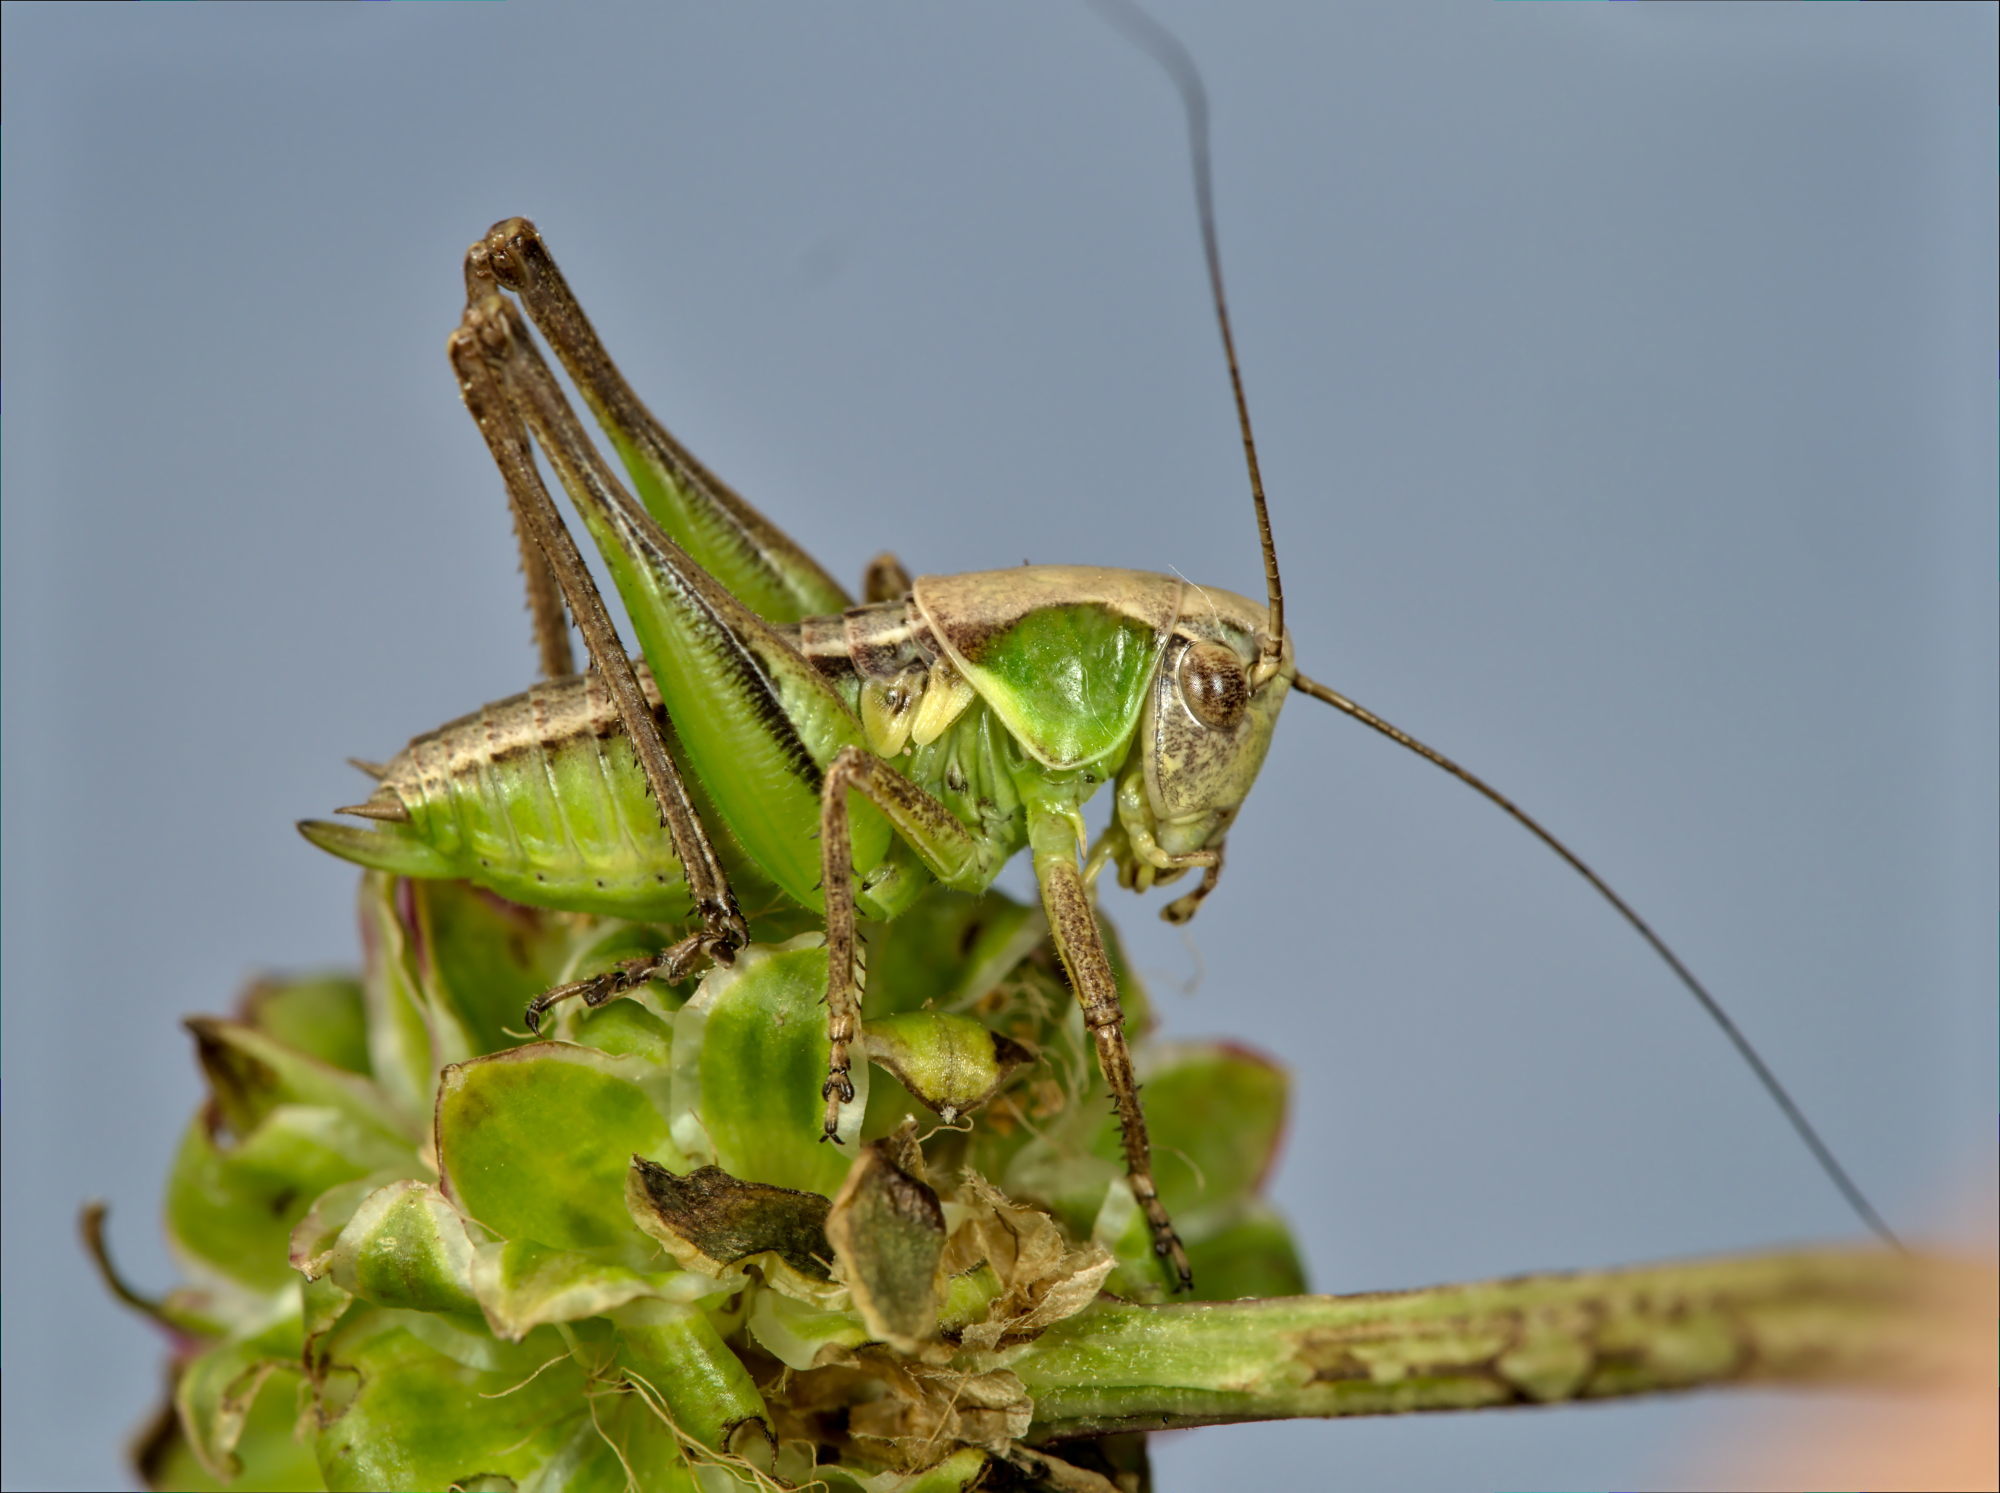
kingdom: Animalia
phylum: Arthropoda
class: Insecta
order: Orthoptera
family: Tettigoniidae
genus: Platycleis
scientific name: Platycleis albopunctata
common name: Grey bush-cricket
